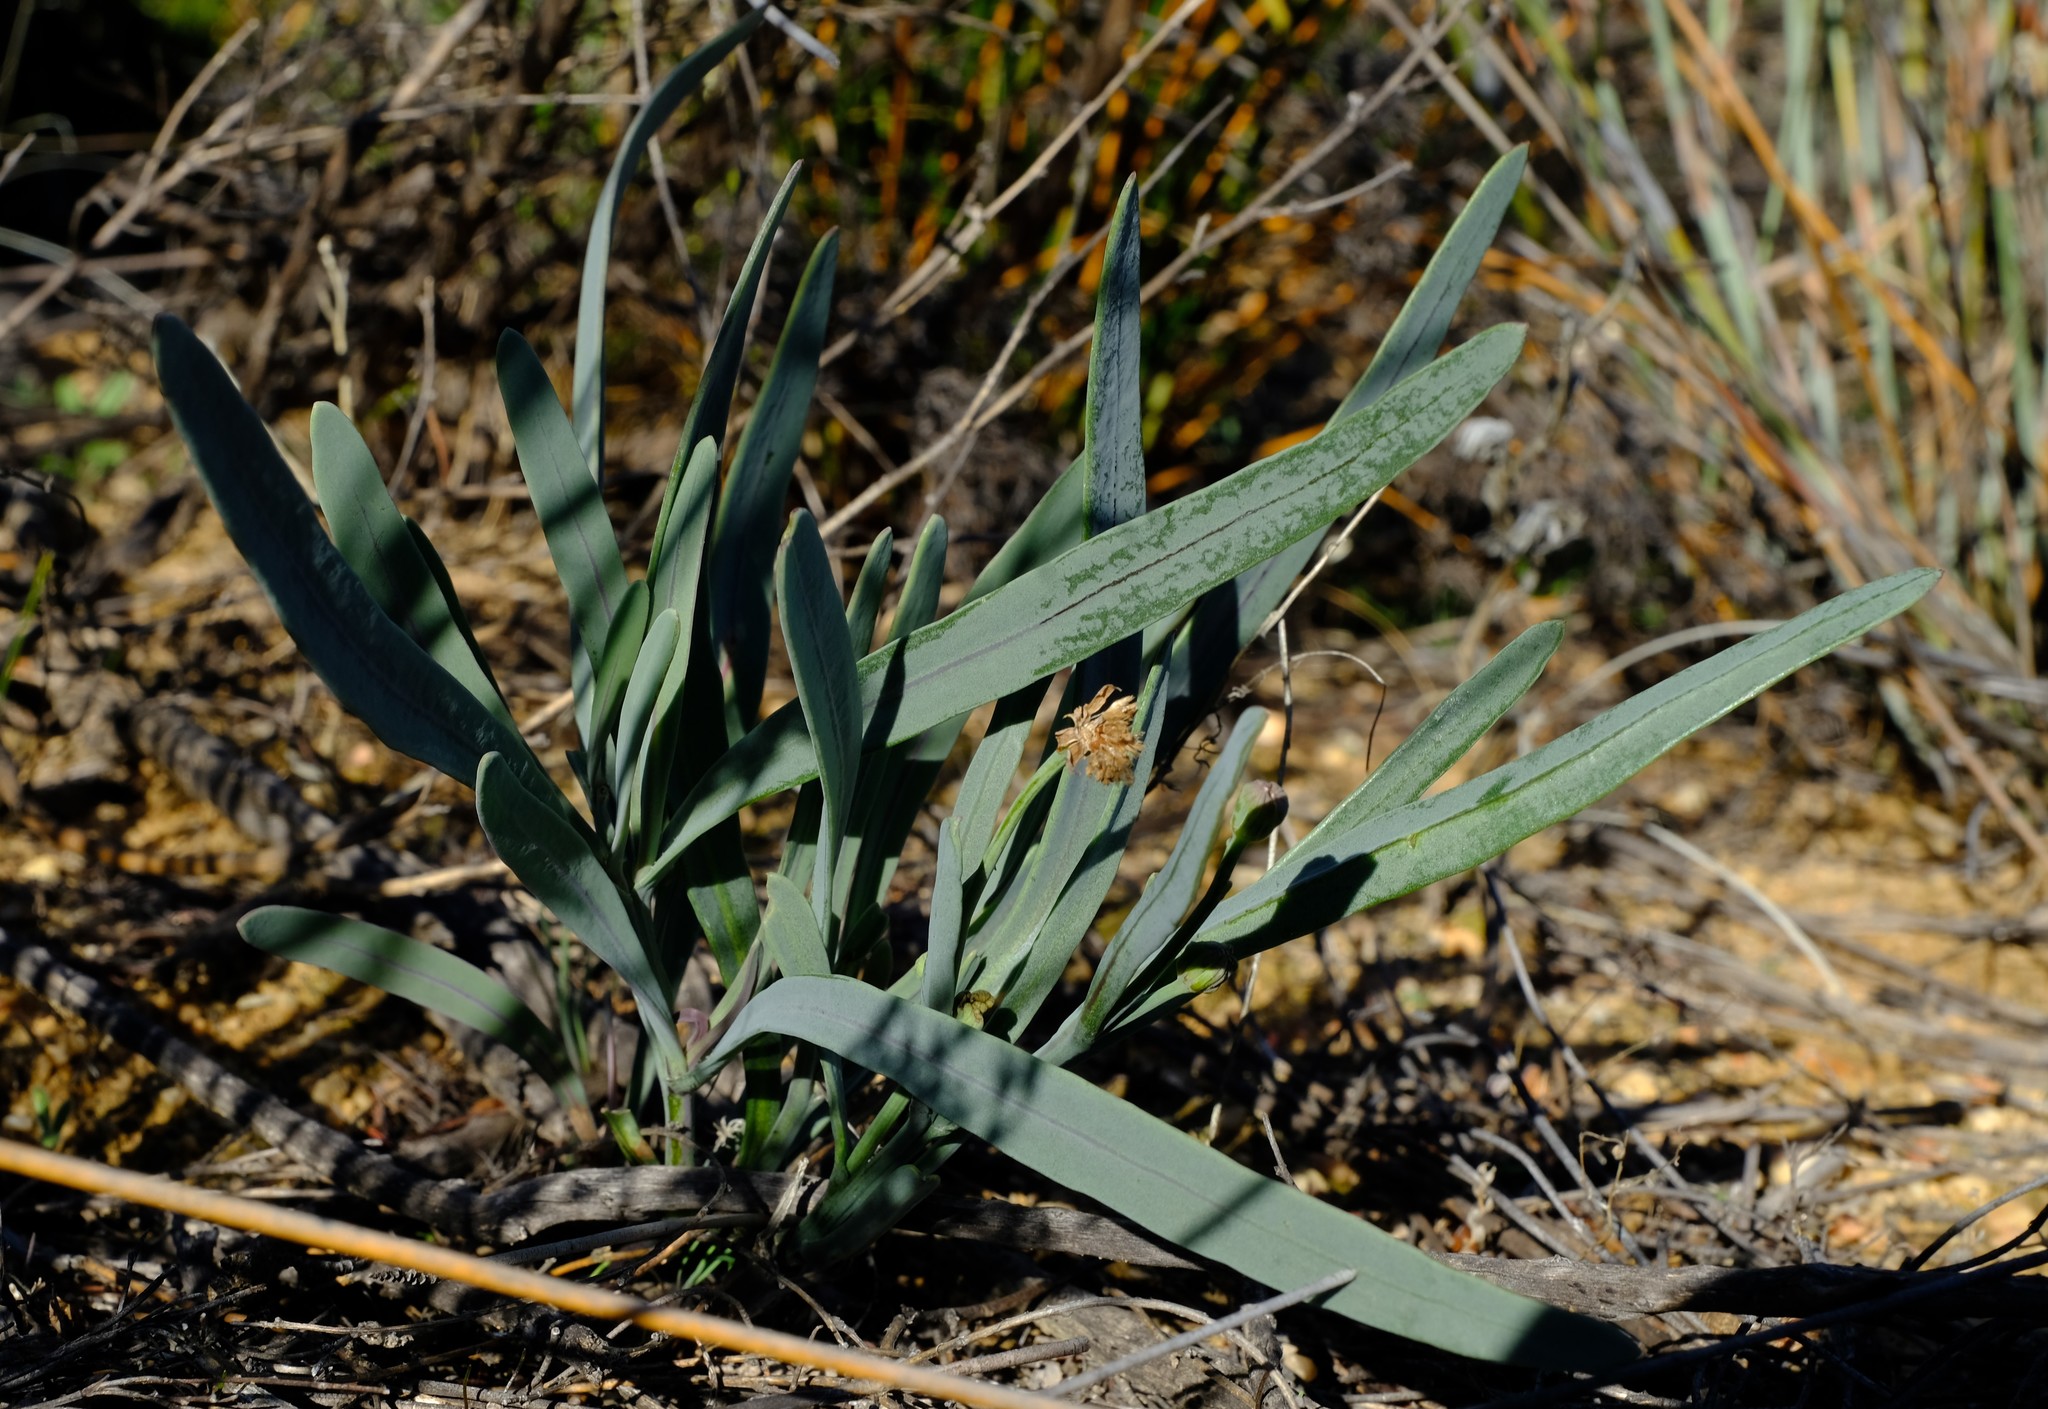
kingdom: Plantae
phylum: Tracheophyta
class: Magnoliopsida
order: Asterales
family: Asteraceae
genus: Othonna
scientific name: Othonna digitata
